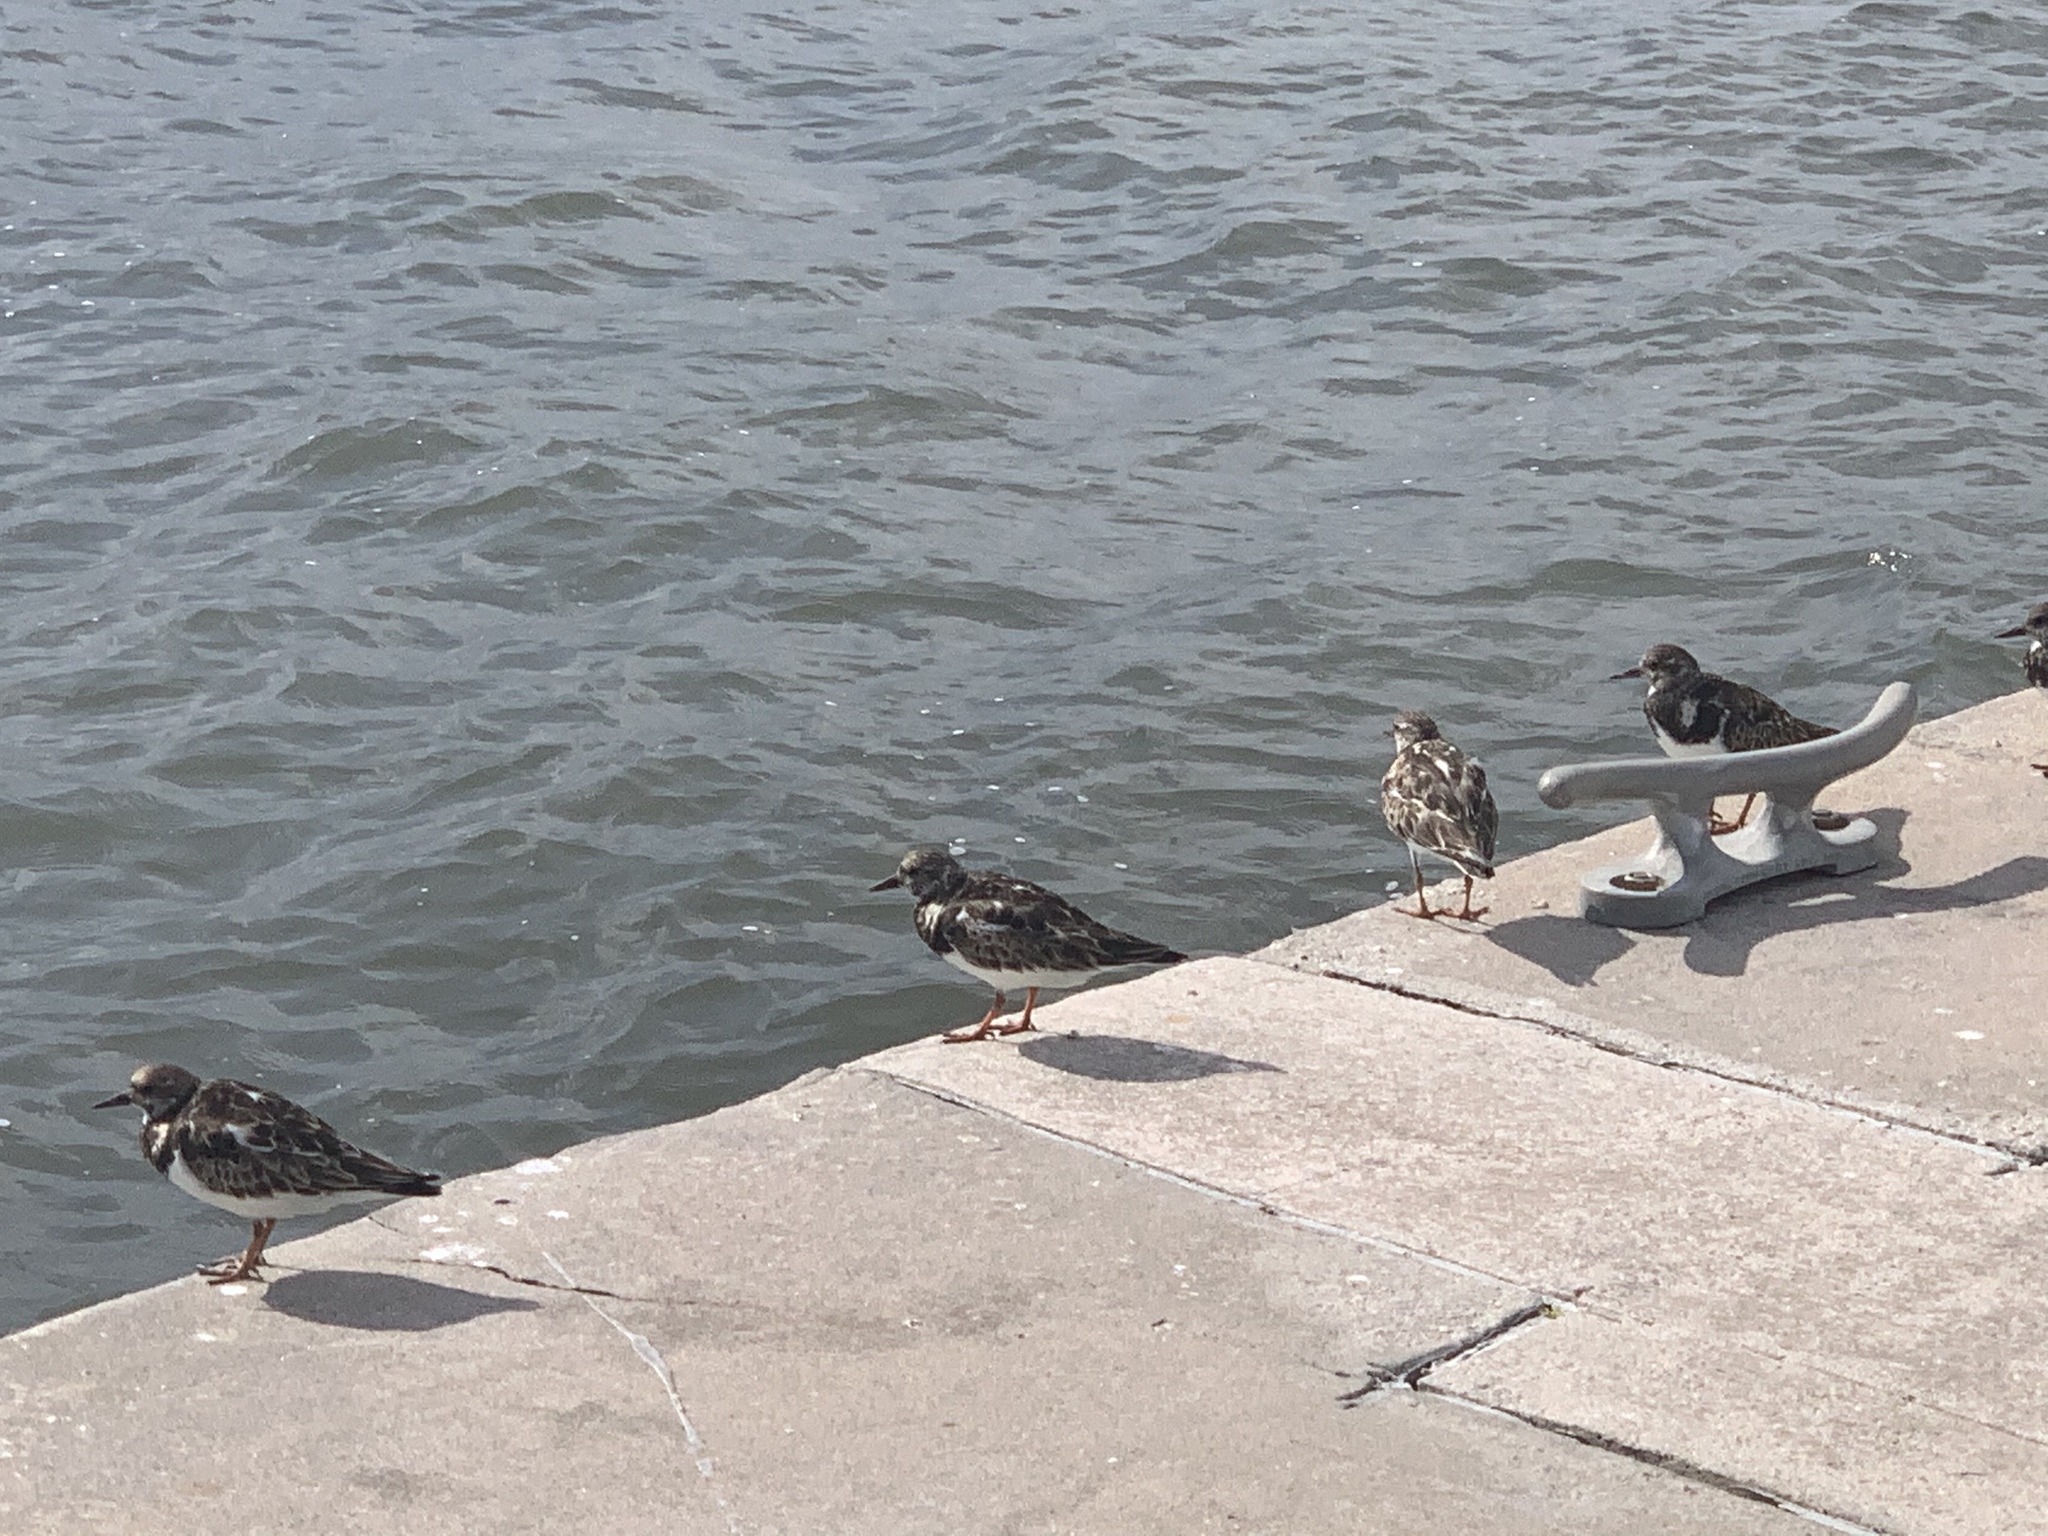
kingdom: Animalia
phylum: Chordata
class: Aves
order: Charadriiformes
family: Scolopacidae
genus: Arenaria
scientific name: Arenaria interpres
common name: Ruddy turnstone
